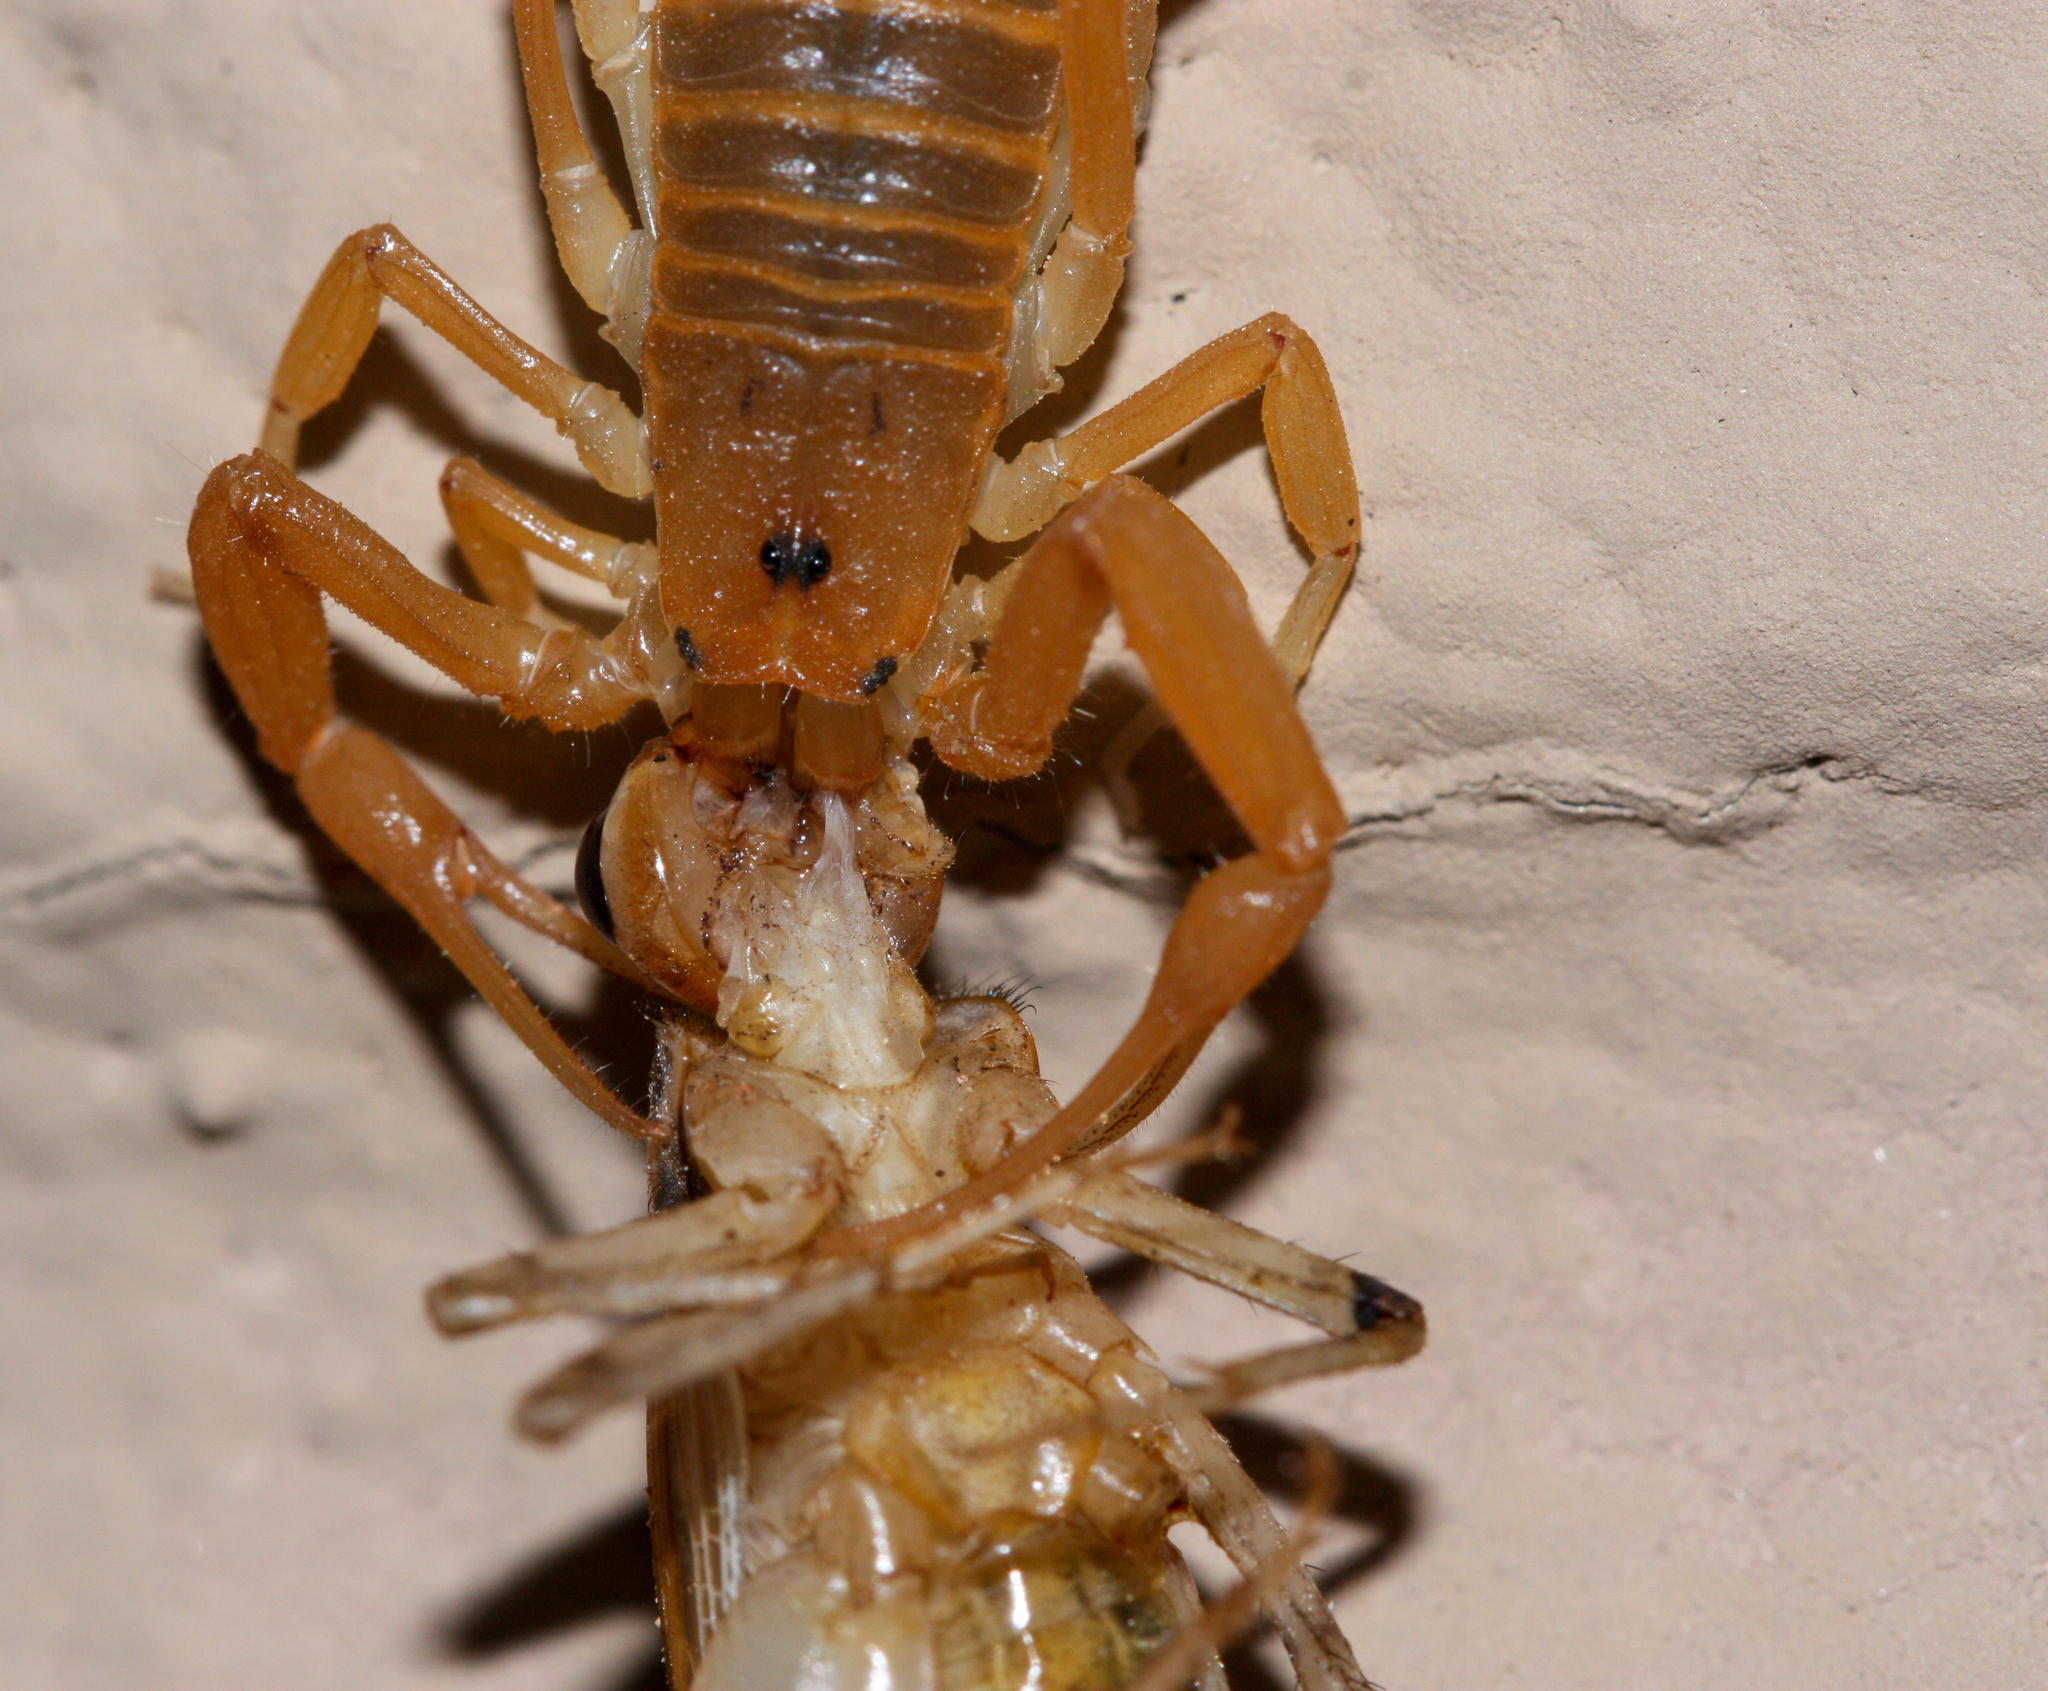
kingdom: Animalia
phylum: Arthropoda
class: Arachnida
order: Scorpiones
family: Buthidae
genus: Centruroides
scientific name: Centruroides sculpturatus
